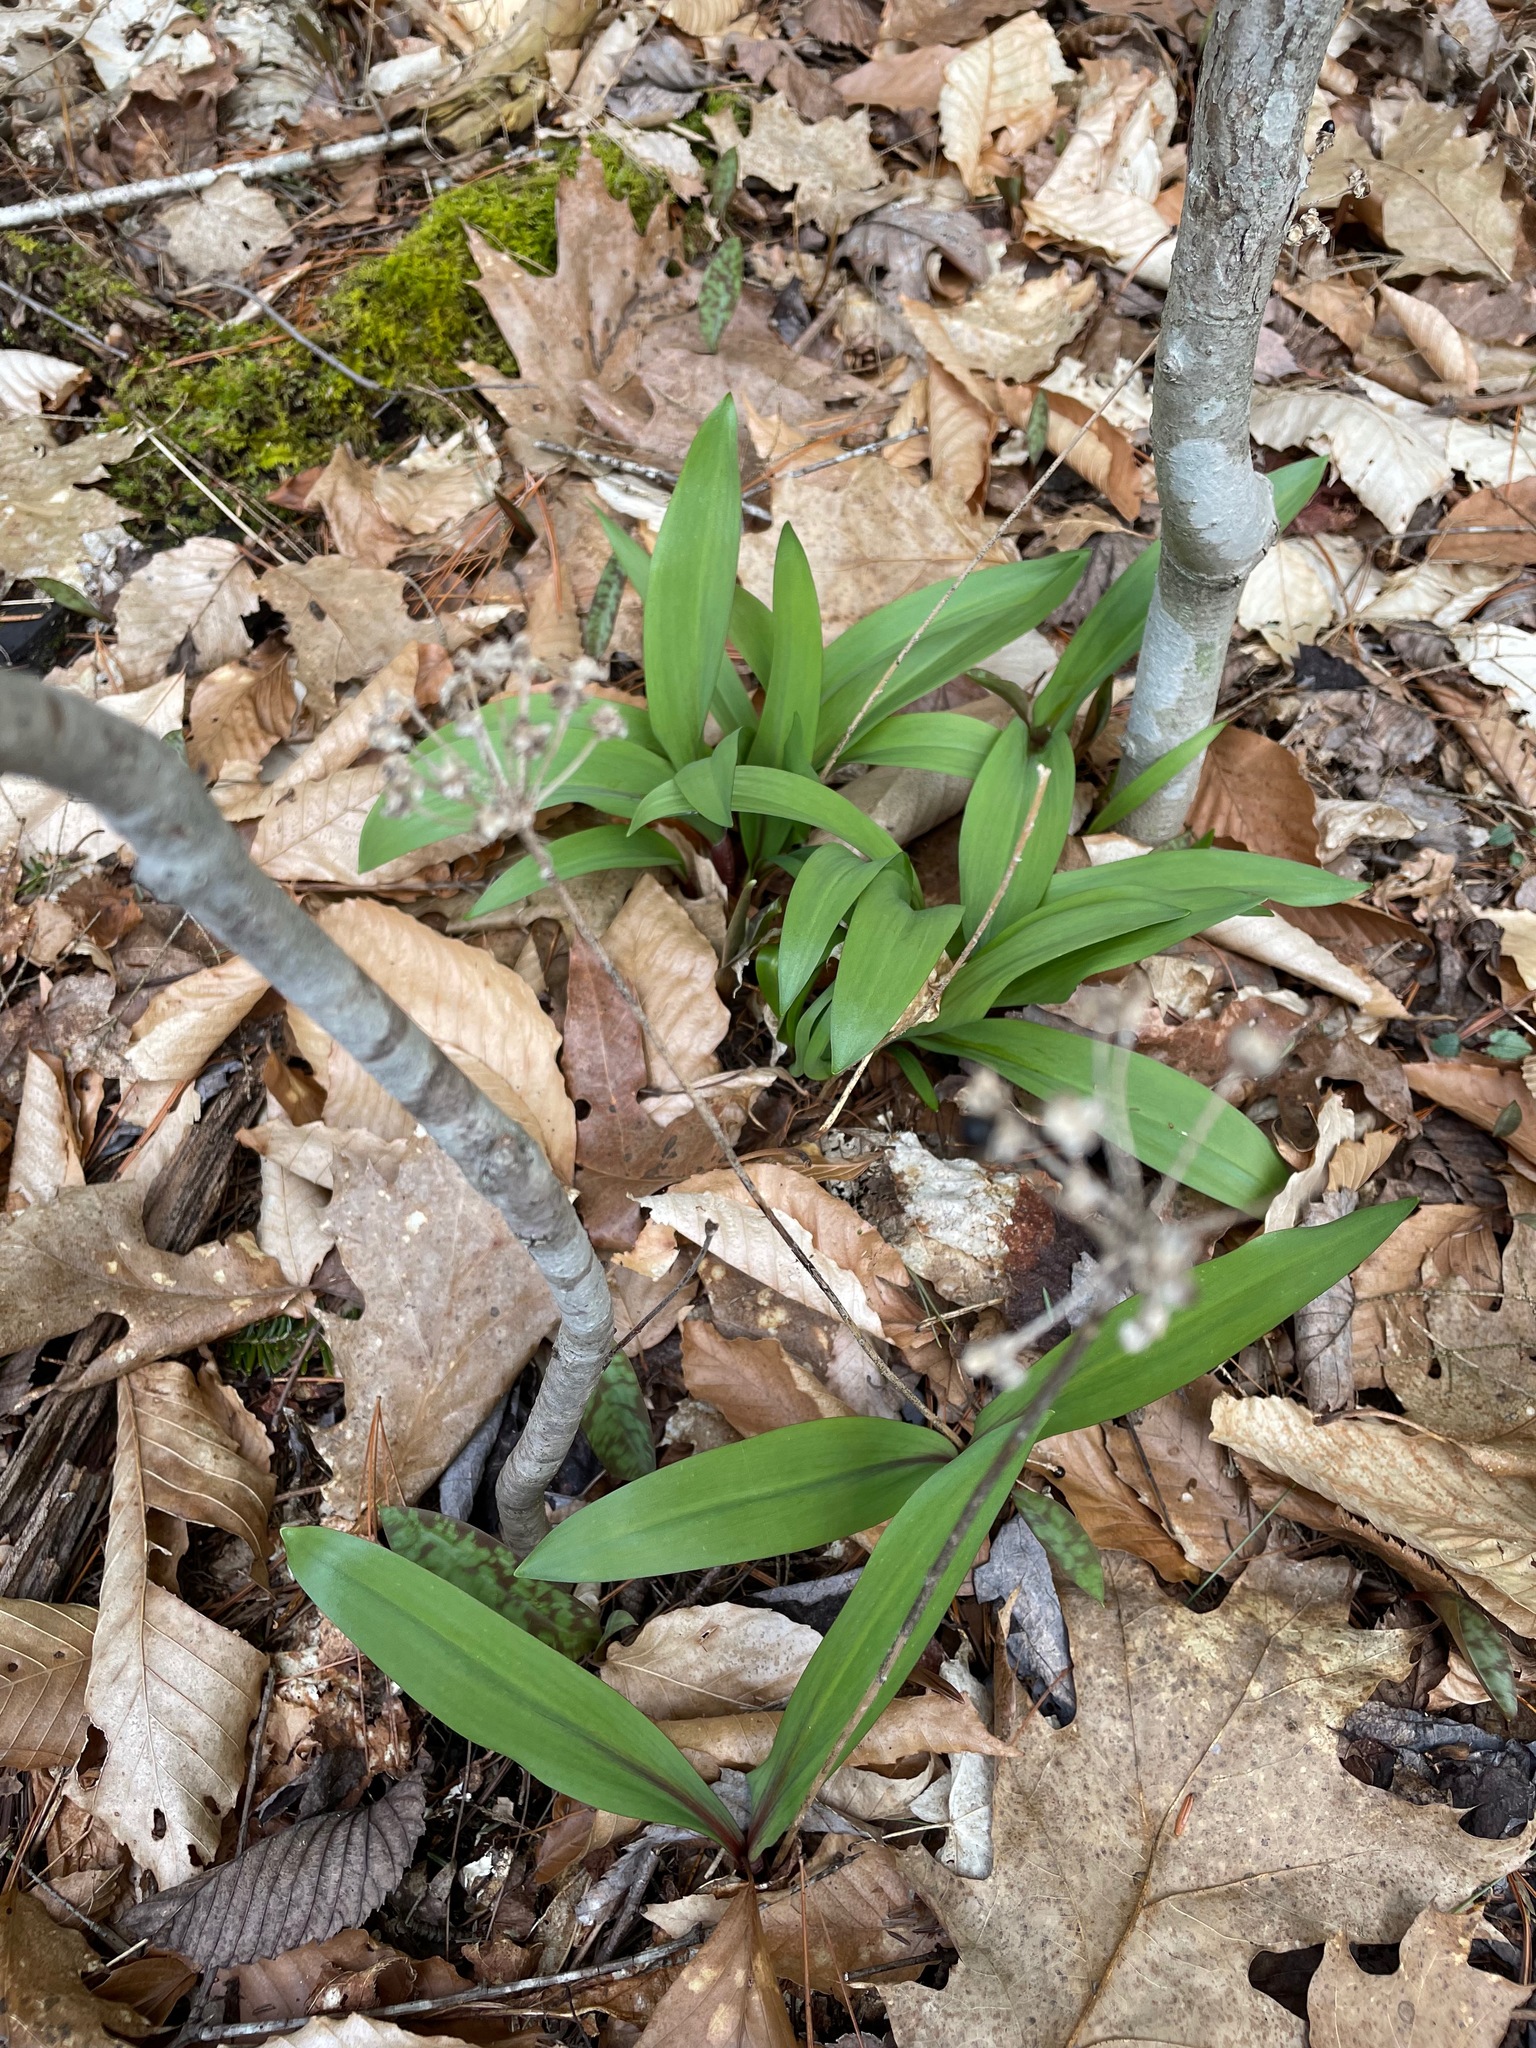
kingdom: Plantae
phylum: Tracheophyta
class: Liliopsida
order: Asparagales
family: Amaryllidaceae
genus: Allium
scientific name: Allium tricoccum
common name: Ramp
